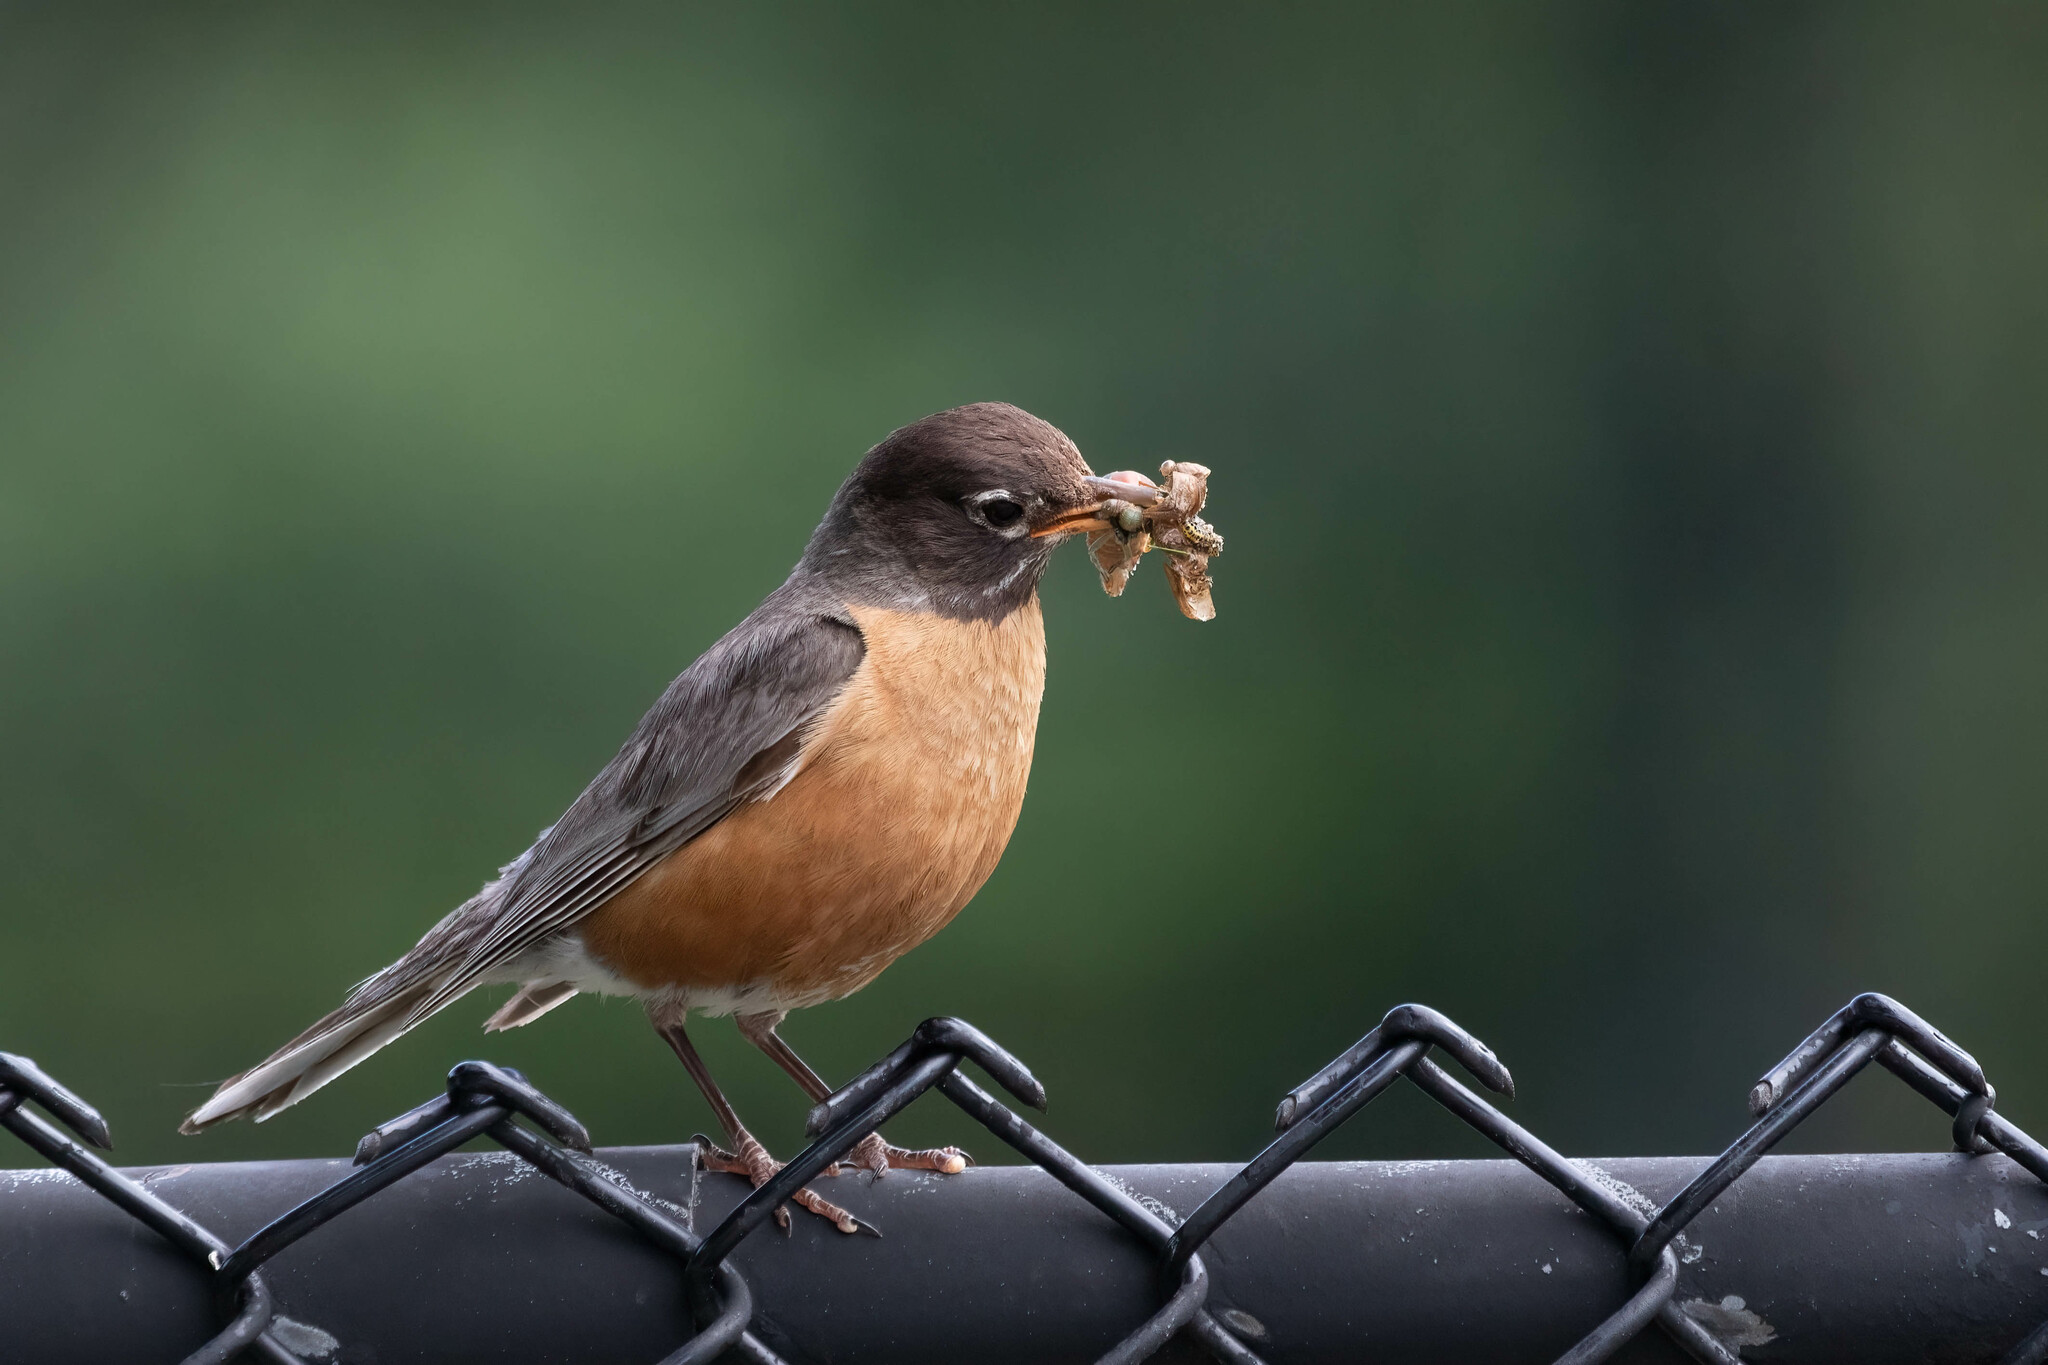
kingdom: Animalia
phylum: Chordata
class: Aves
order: Passeriformes
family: Turdidae
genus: Turdus
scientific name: Turdus migratorius
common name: American robin
